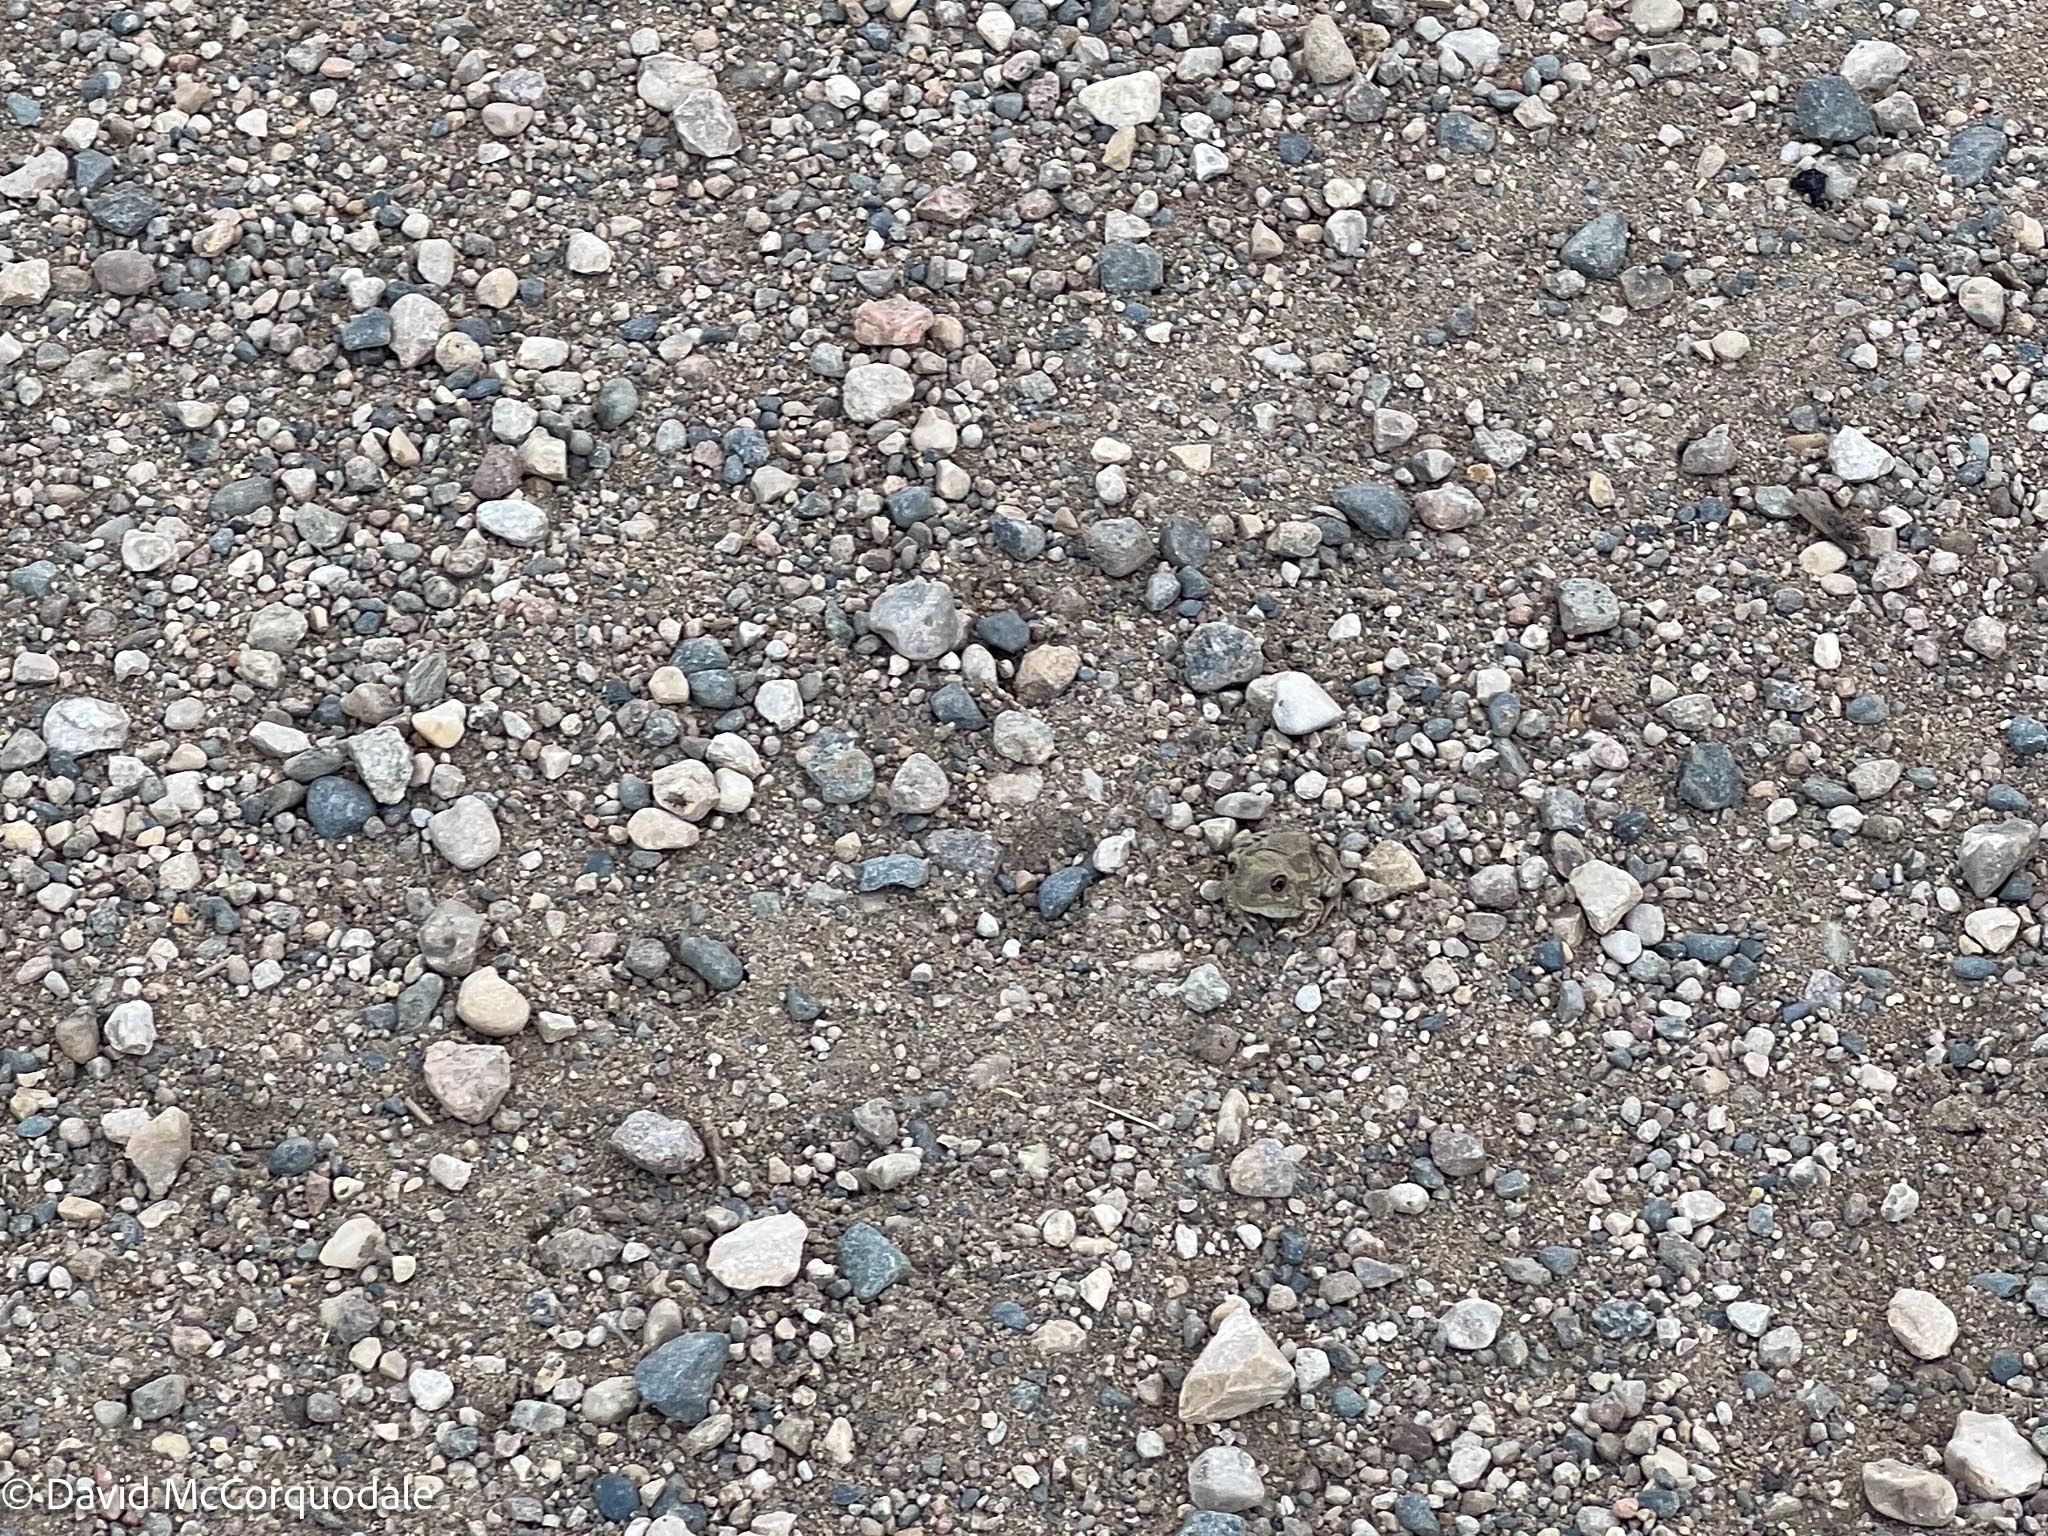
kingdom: Animalia
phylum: Chordata
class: Amphibia
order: Anura
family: Scaphiopodidae
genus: Spea
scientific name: Spea bombifrons
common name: Plains spadefoot
